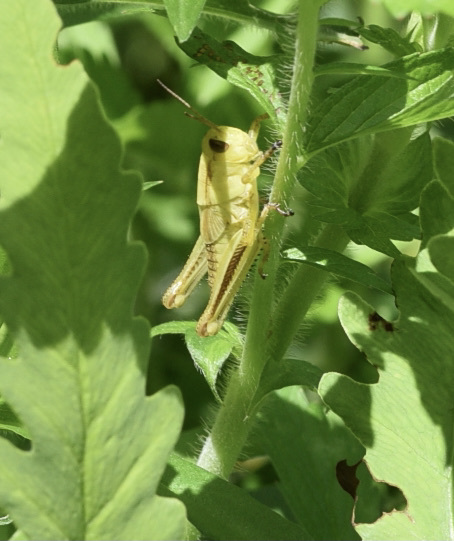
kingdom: Animalia
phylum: Arthropoda
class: Insecta
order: Orthoptera
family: Acrididae
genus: Melanoplus
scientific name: Melanoplus bivittatus
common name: Two-striped grasshopper
